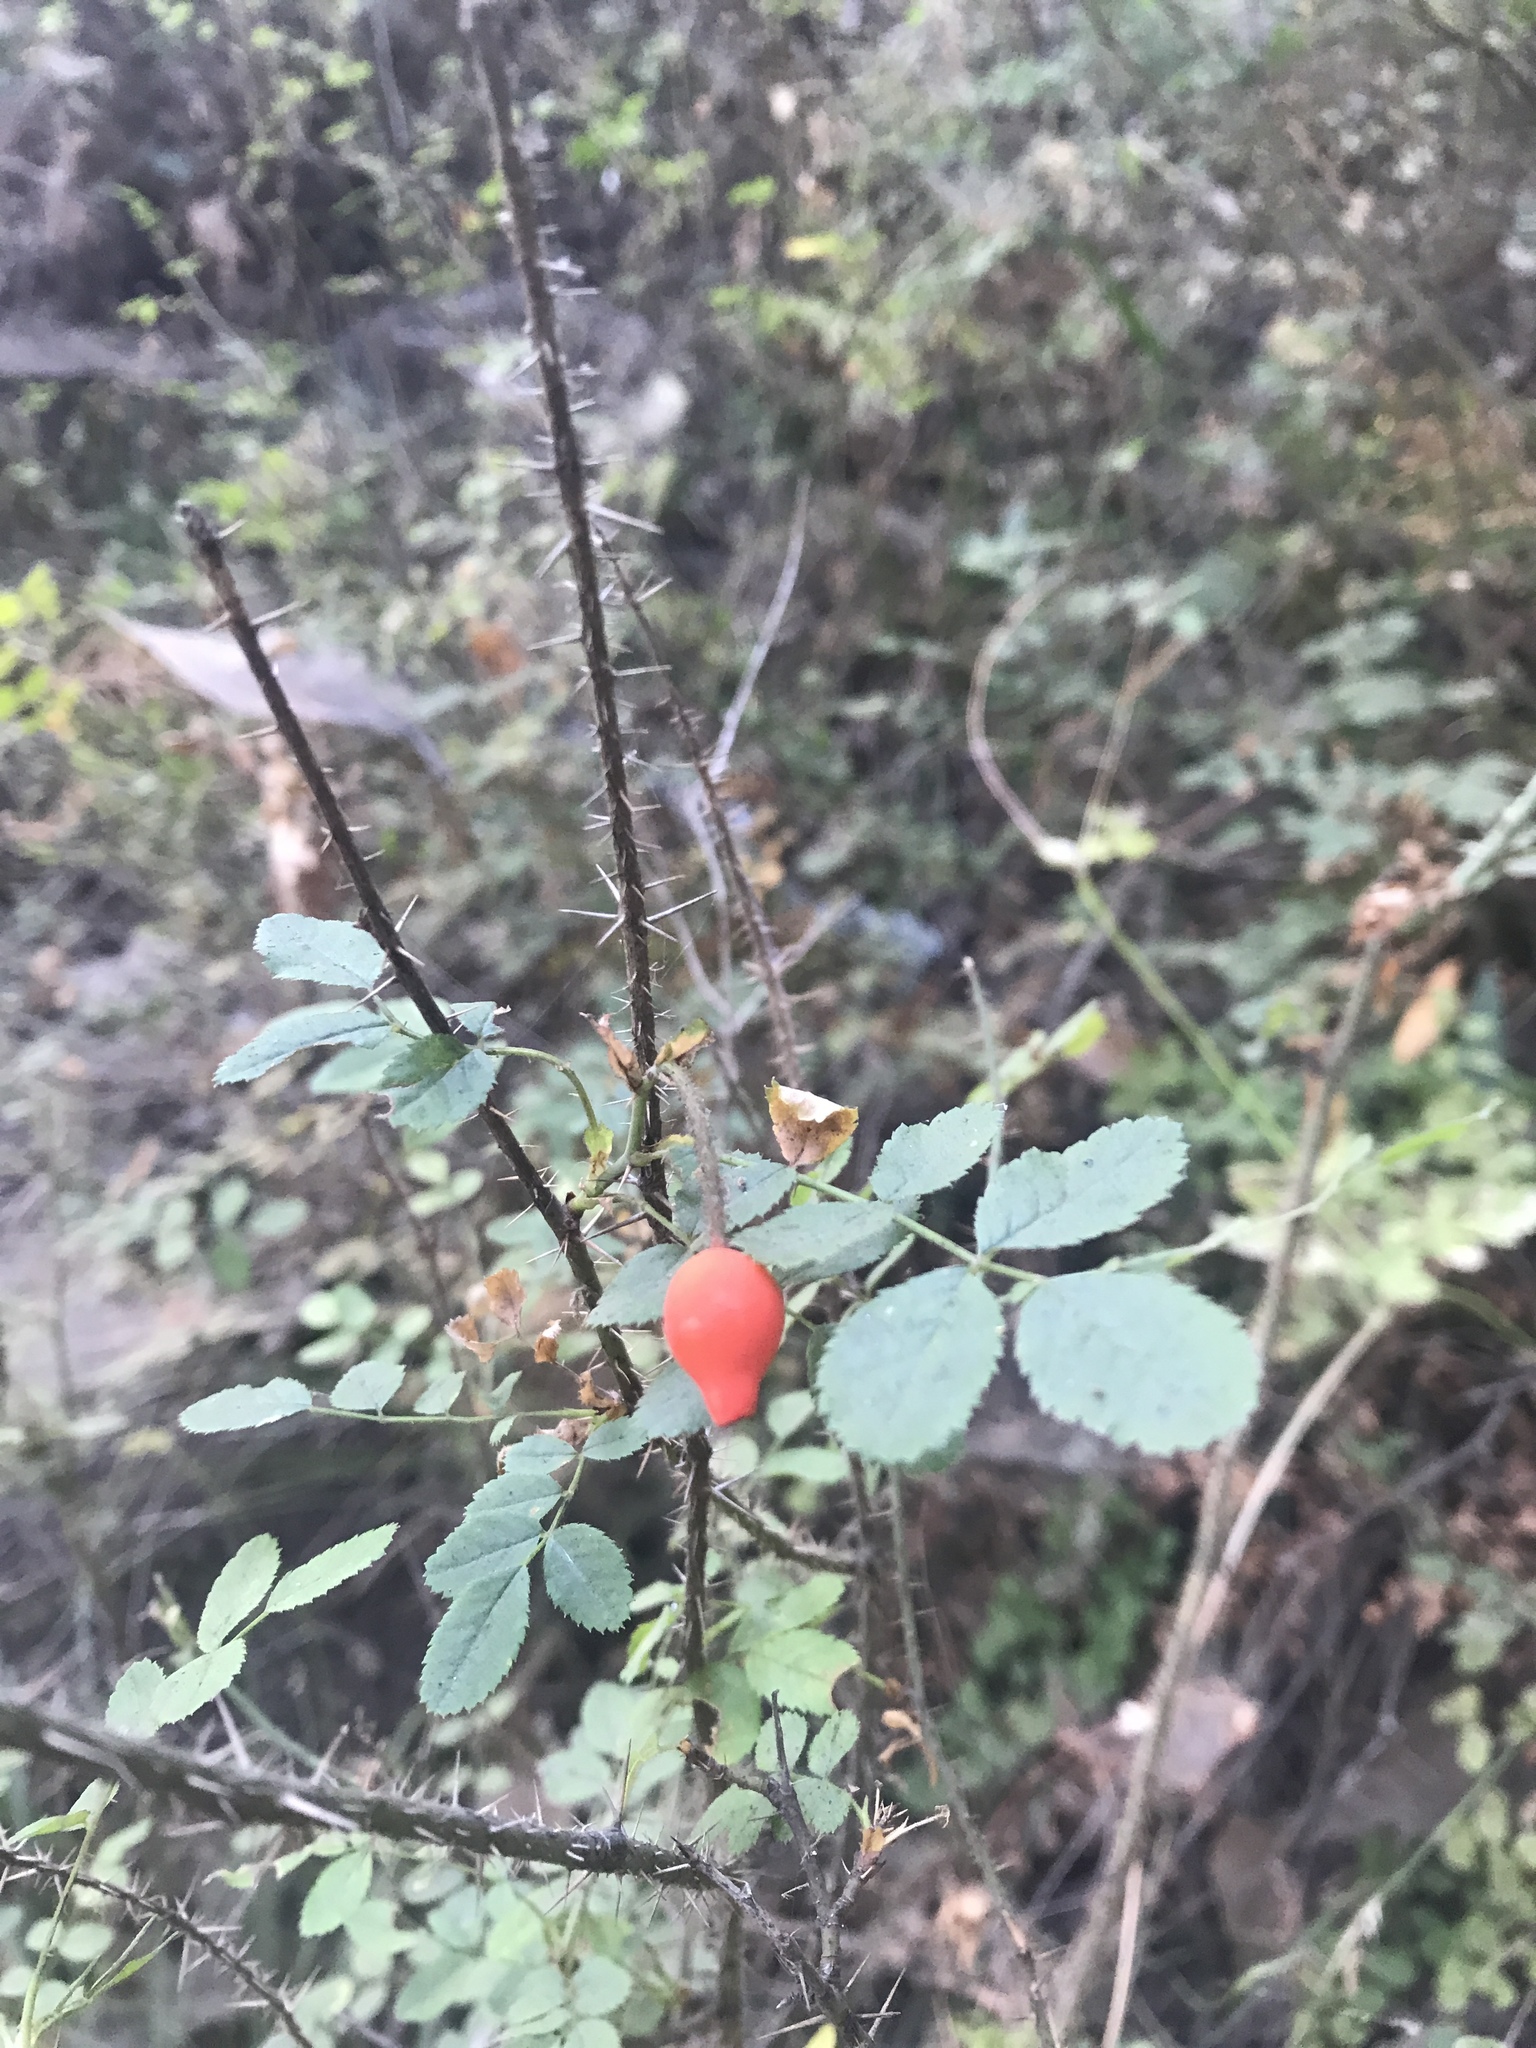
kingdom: Plantae
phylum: Tracheophyta
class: Magnoliopsida
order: Rosales
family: Rosaceae
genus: Rosa
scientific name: Rosa gymnocarpa
